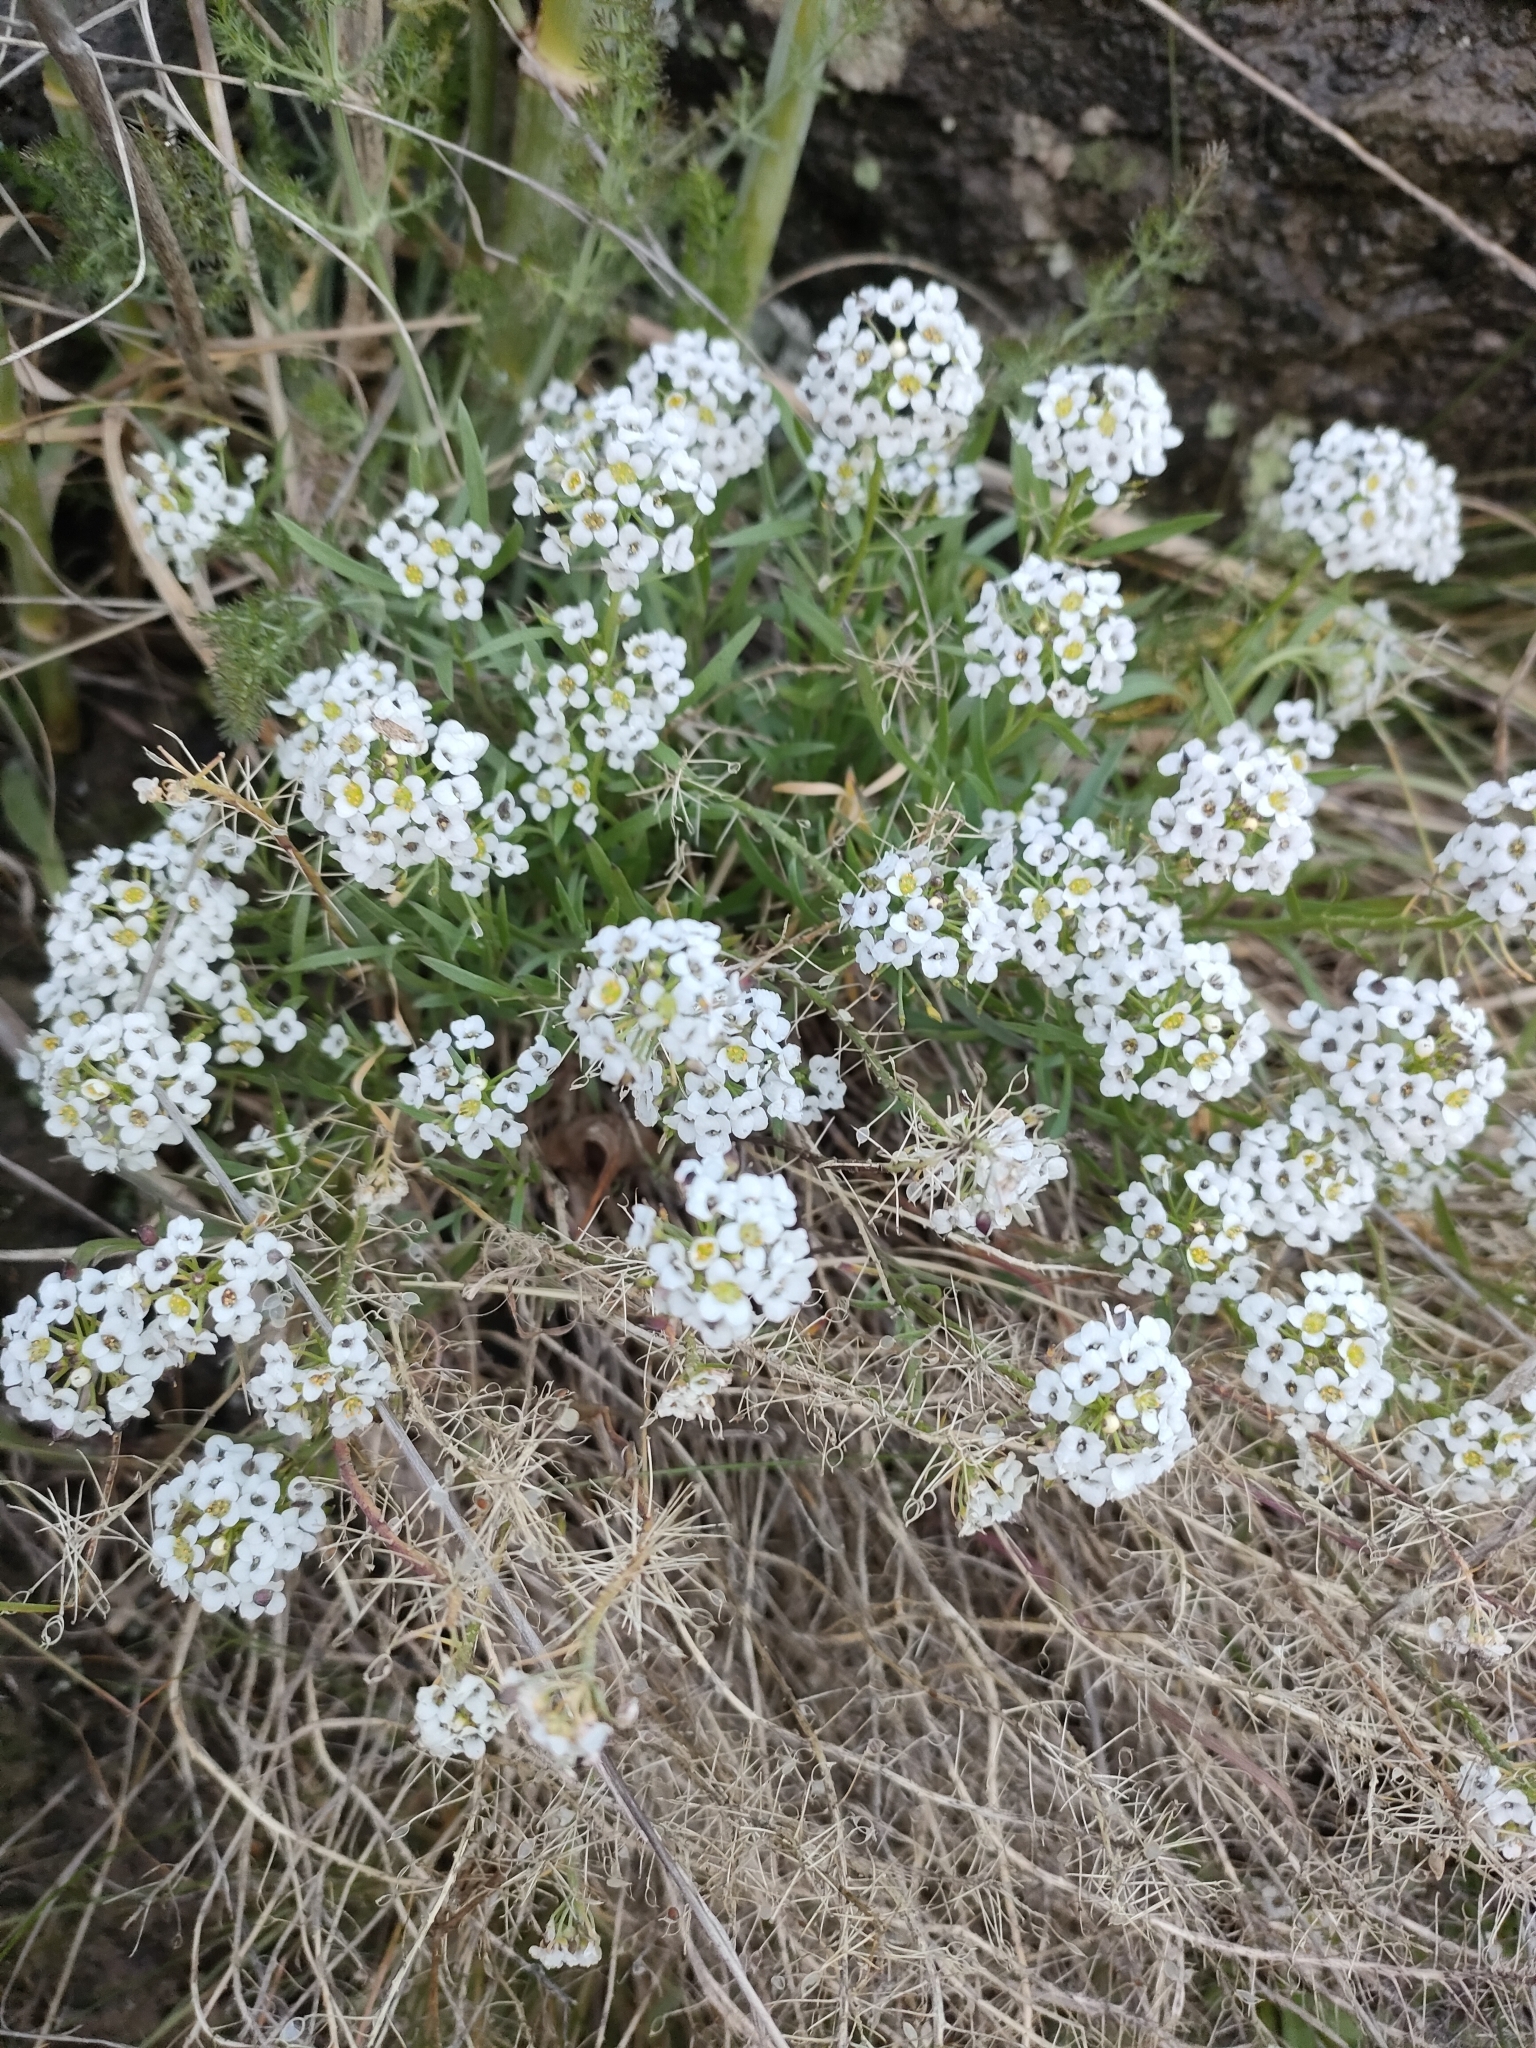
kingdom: Plantae
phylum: Tracheophyta
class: Magnoliopsida
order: Brassicales
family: Brassicaceae
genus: Lobularia
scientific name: Lobularia maritima
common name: Sweet alison
